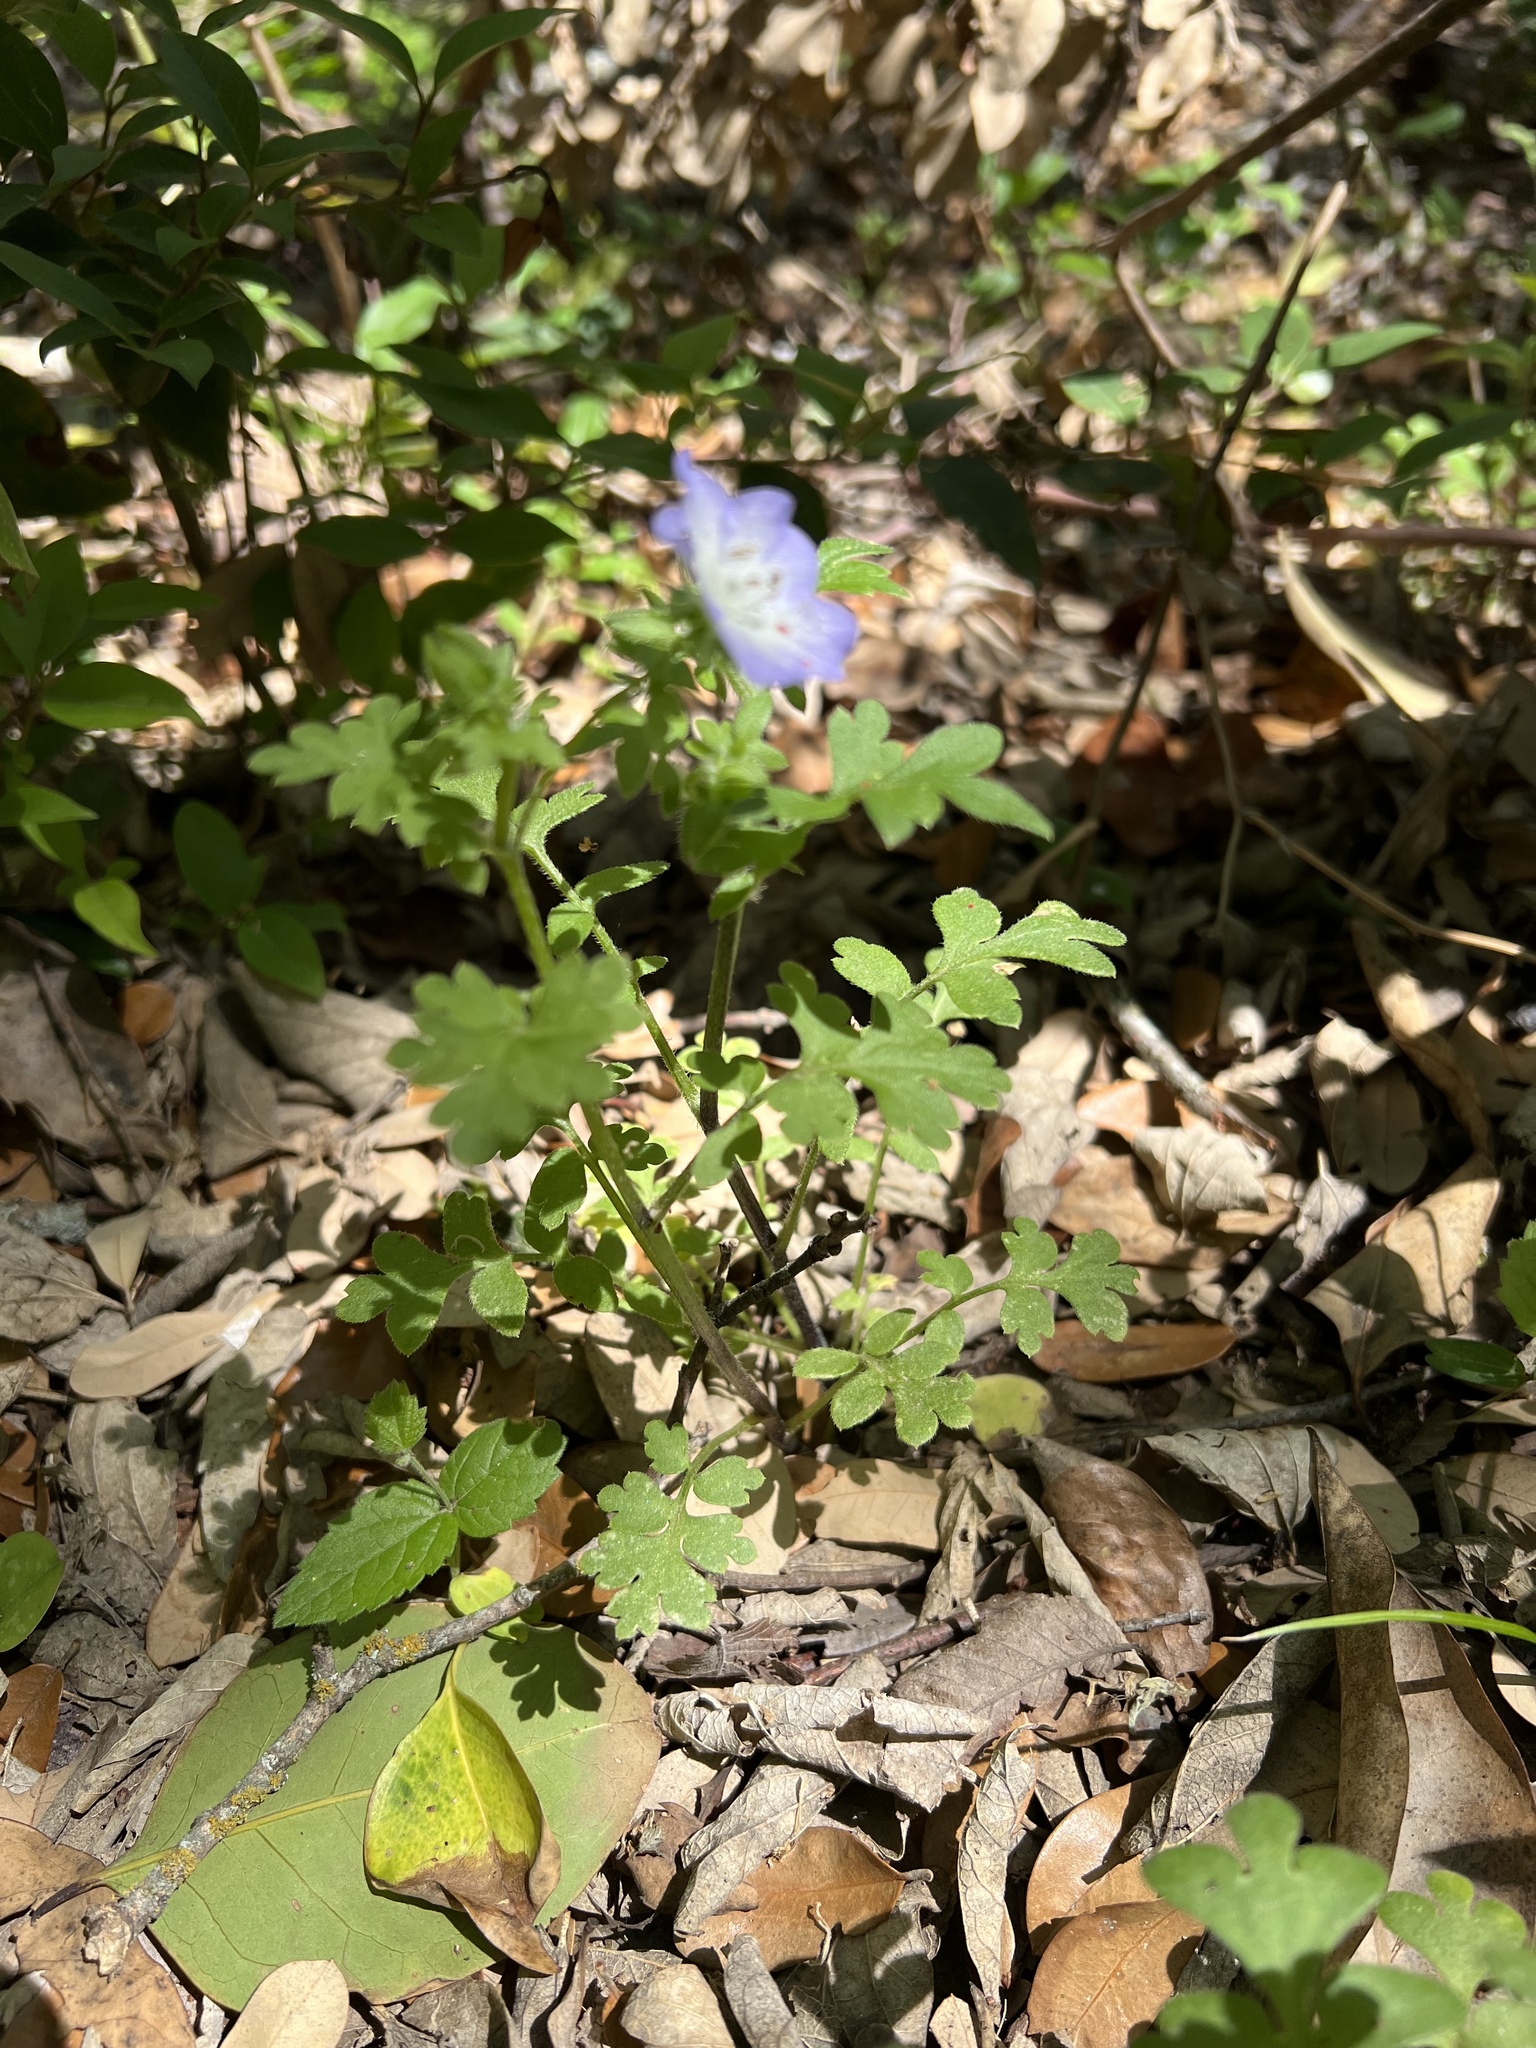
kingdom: Plantae
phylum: Tracheophyta
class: Magnoliopsida
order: Boraginales
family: Hydrophyllaceae
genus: Nemophila
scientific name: Nemophila phacelioides
